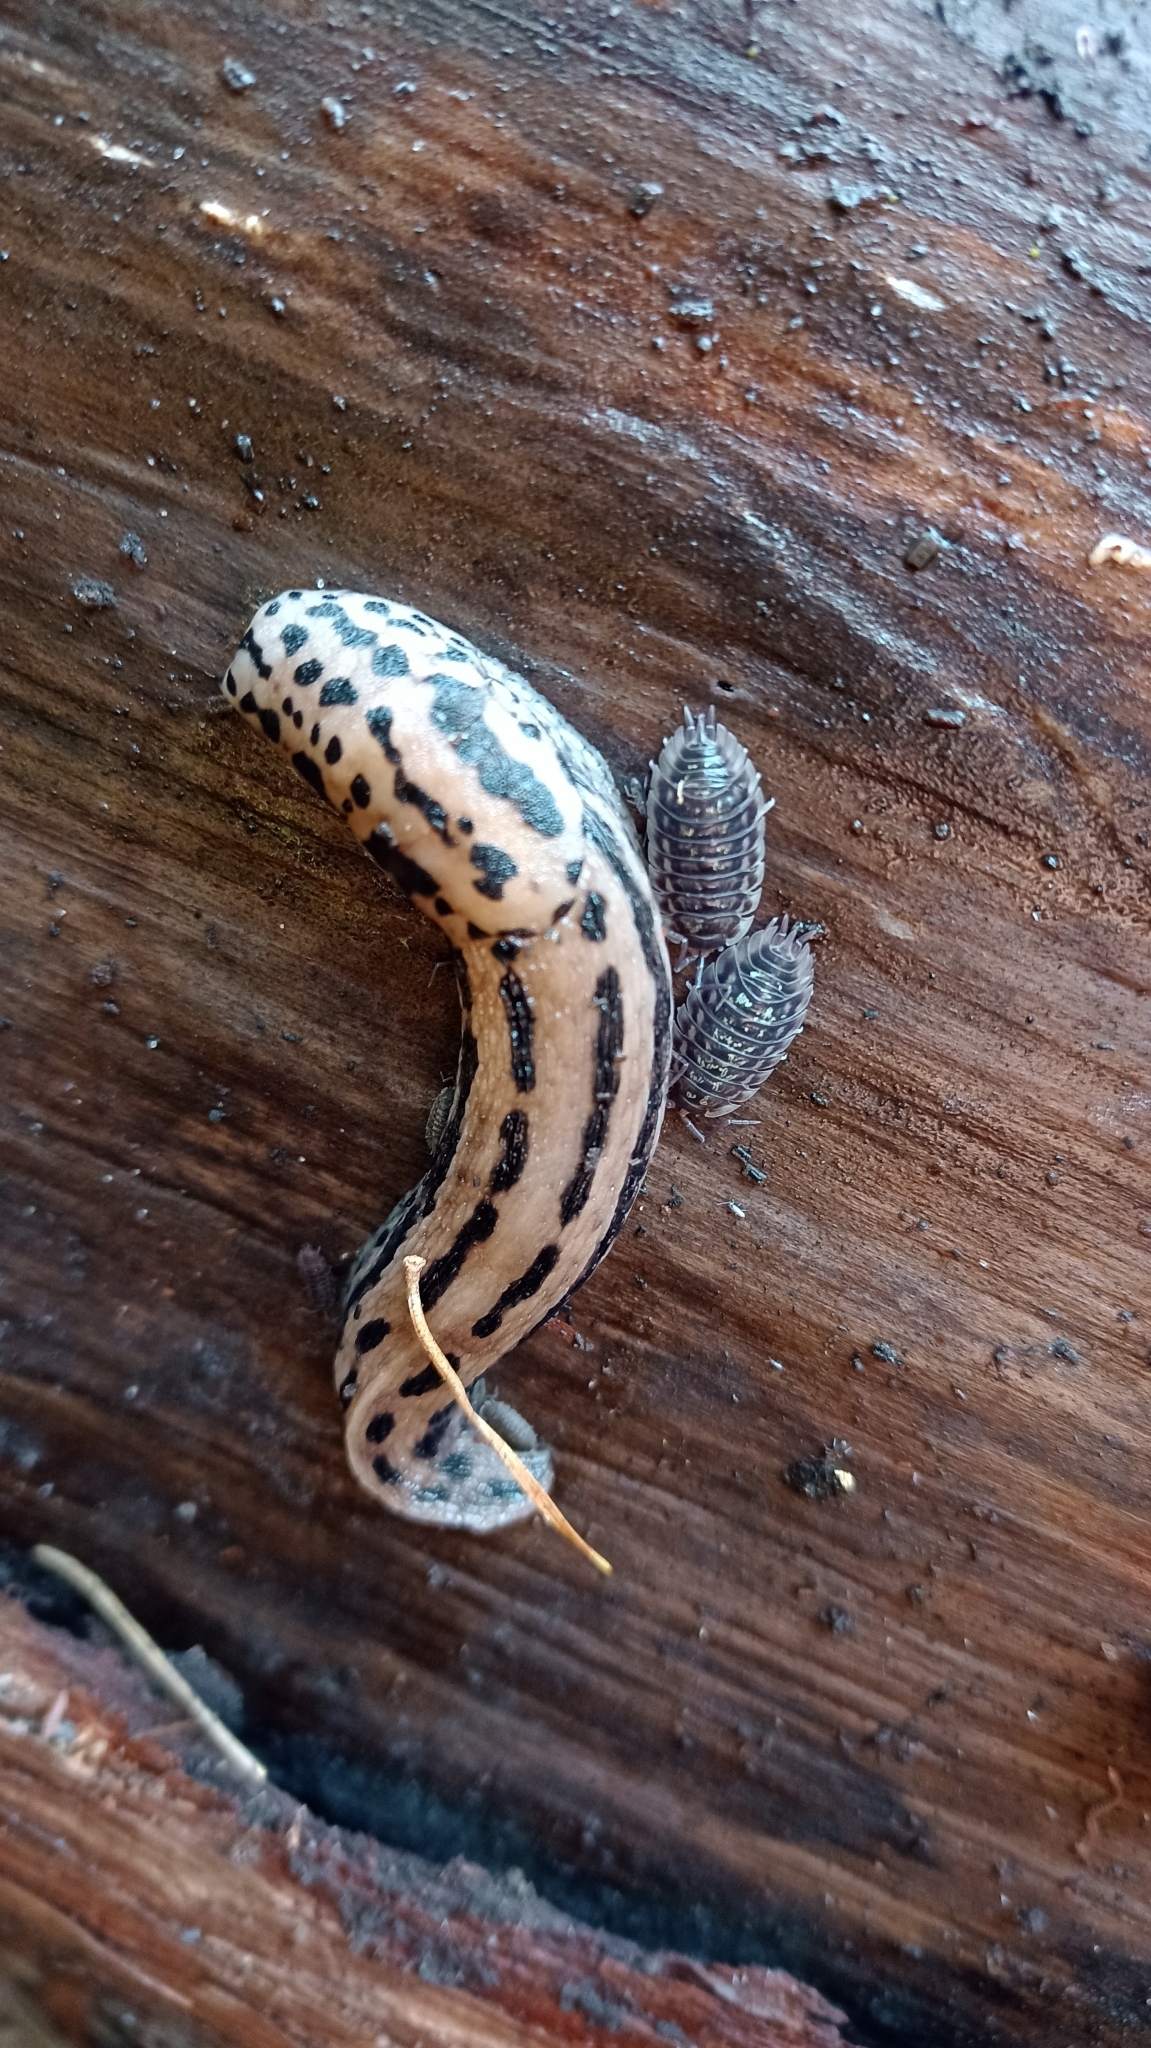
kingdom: Animalia
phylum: Mollusca
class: Gastropoda
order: Stylommatophora
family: Limacidae
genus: Limax
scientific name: Limax maximus
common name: Great grey slug
